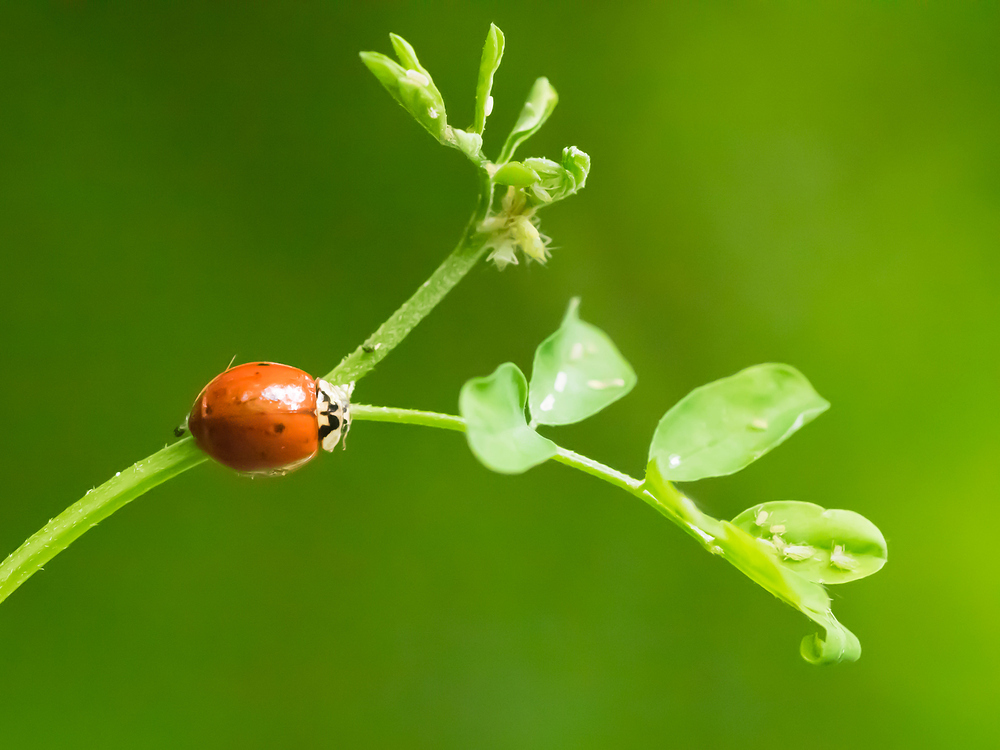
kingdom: Animalia
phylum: Arthropoda
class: Insecta
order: Coleoptera
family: Coccinellidae
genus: Harmonia
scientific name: Harmonia axyridis
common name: Harlequin ladybird
